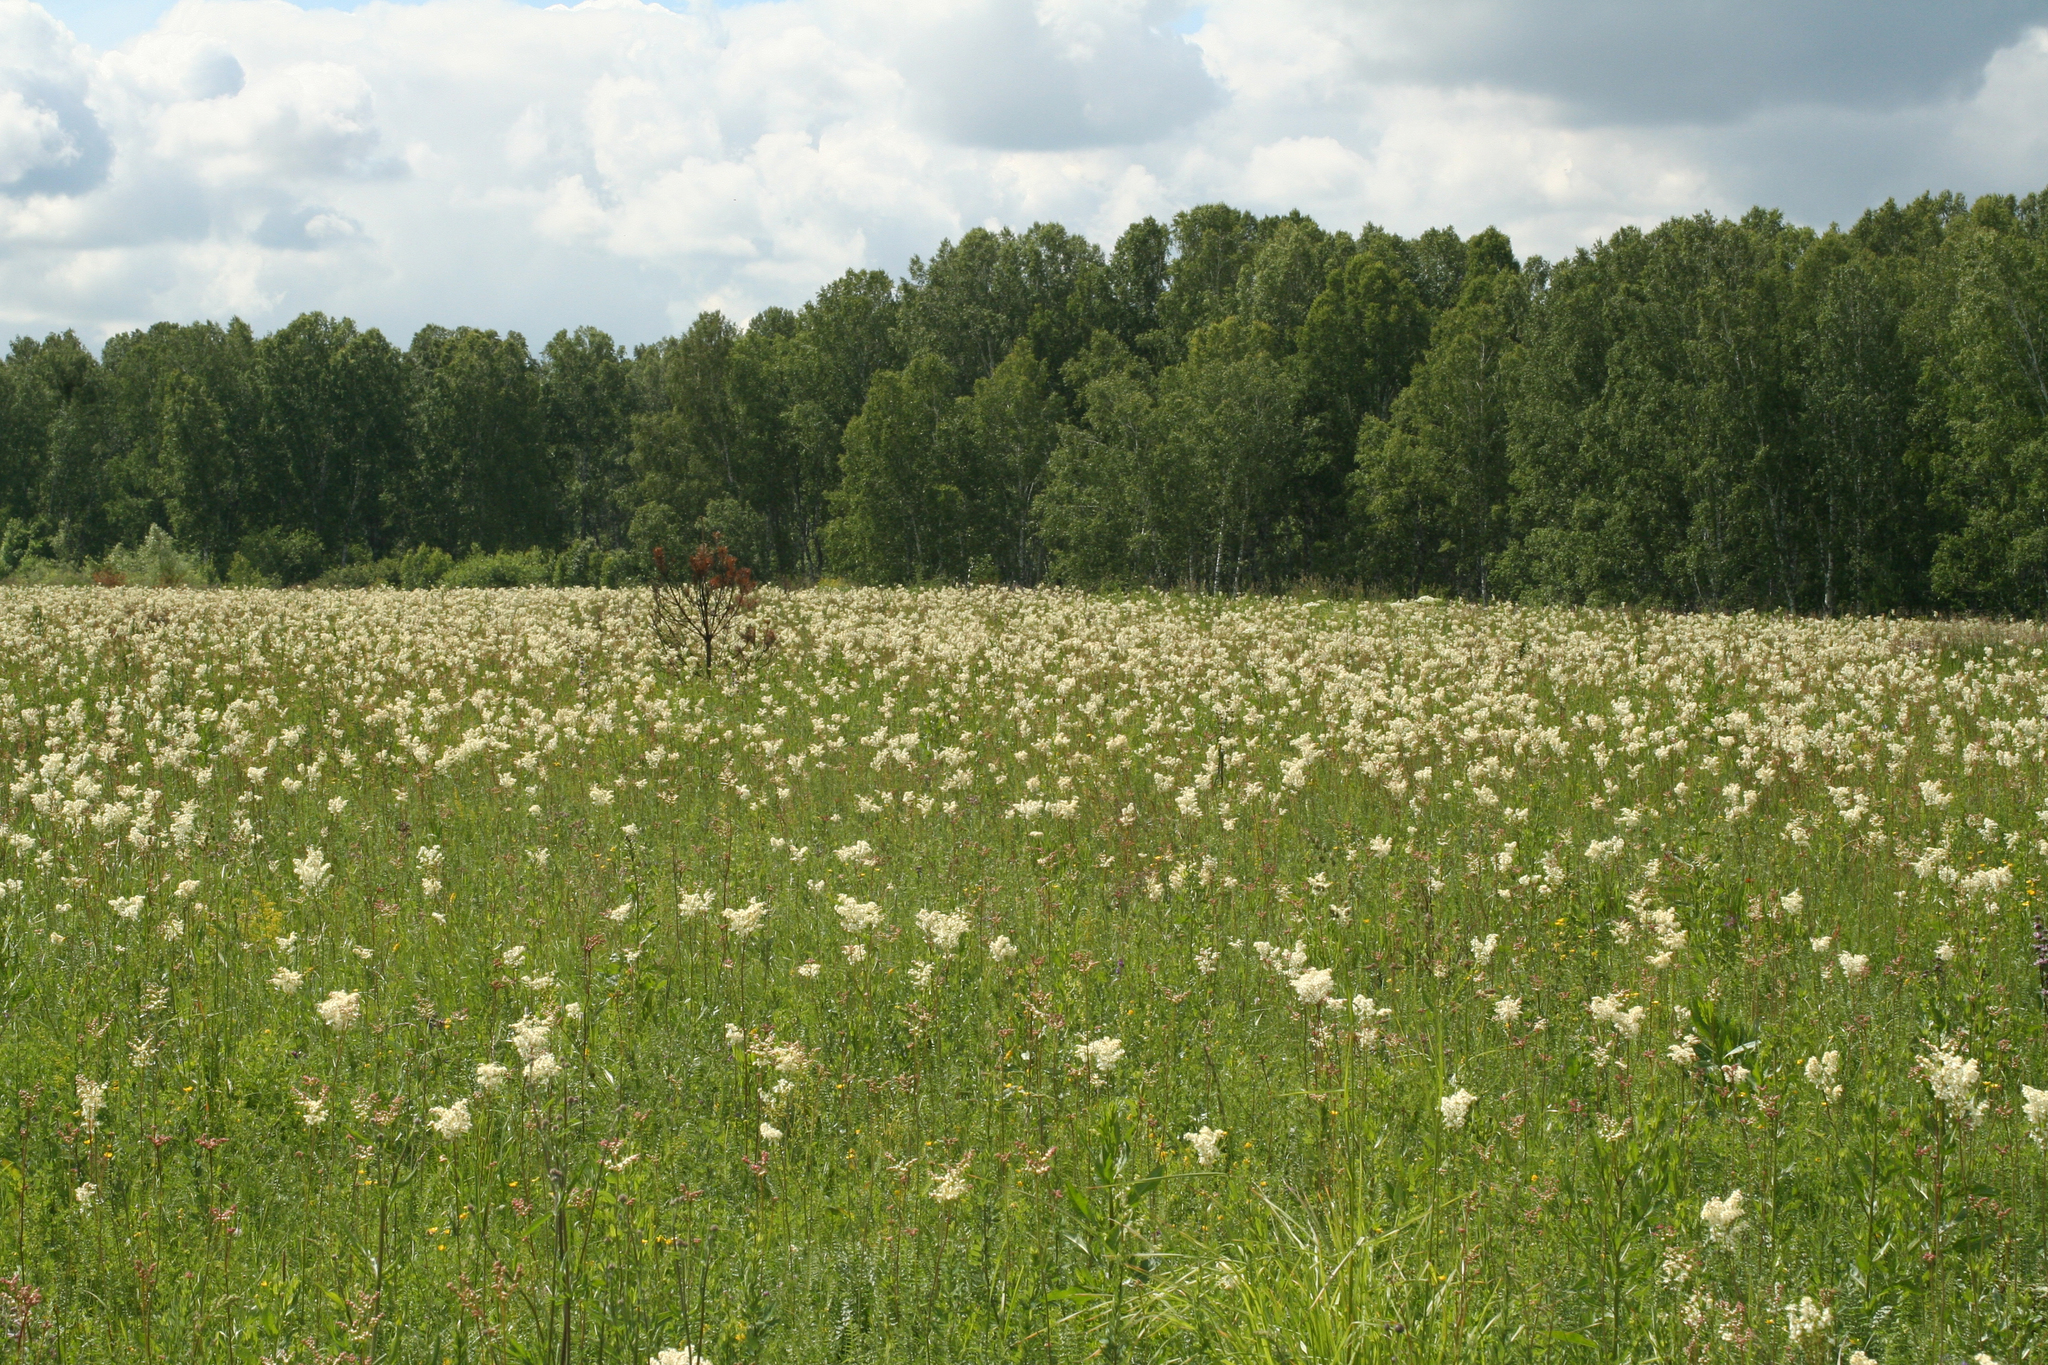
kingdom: Plantae
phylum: Tracheophyta
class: Magnoliopsida
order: Rosales
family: Rosaceae
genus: Filipendula
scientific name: Filipendula vulgaris
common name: Dropwort
